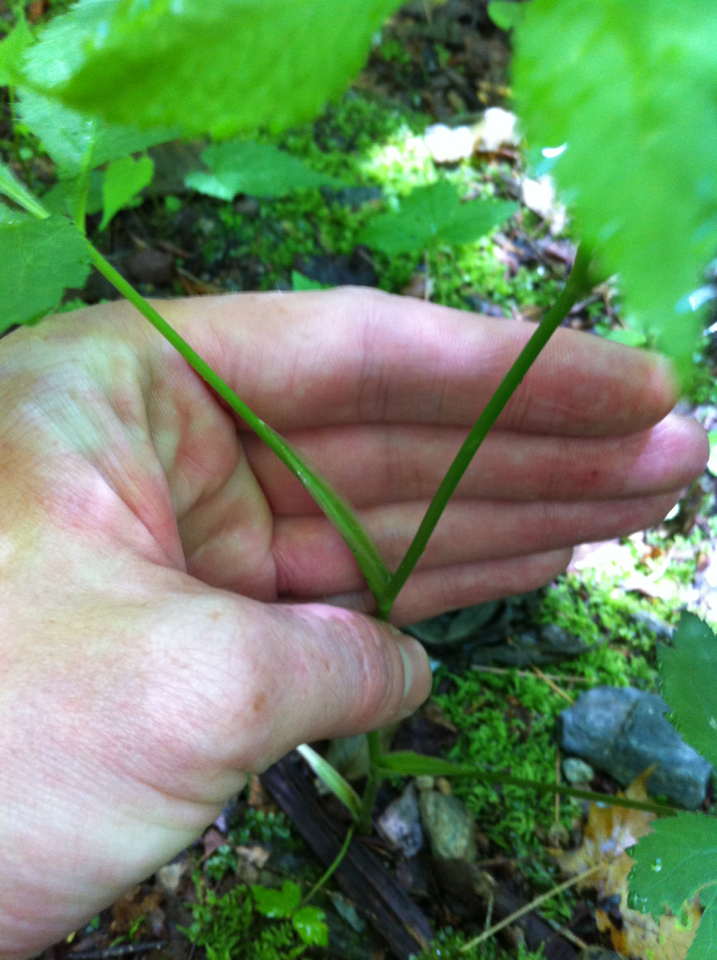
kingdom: Plantae
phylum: Tracheophyta
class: Magnoliopsida
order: Apiales
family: Apiaceae
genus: Cryptotaenia
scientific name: Cryptotaenia canadensis
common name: Honewort
